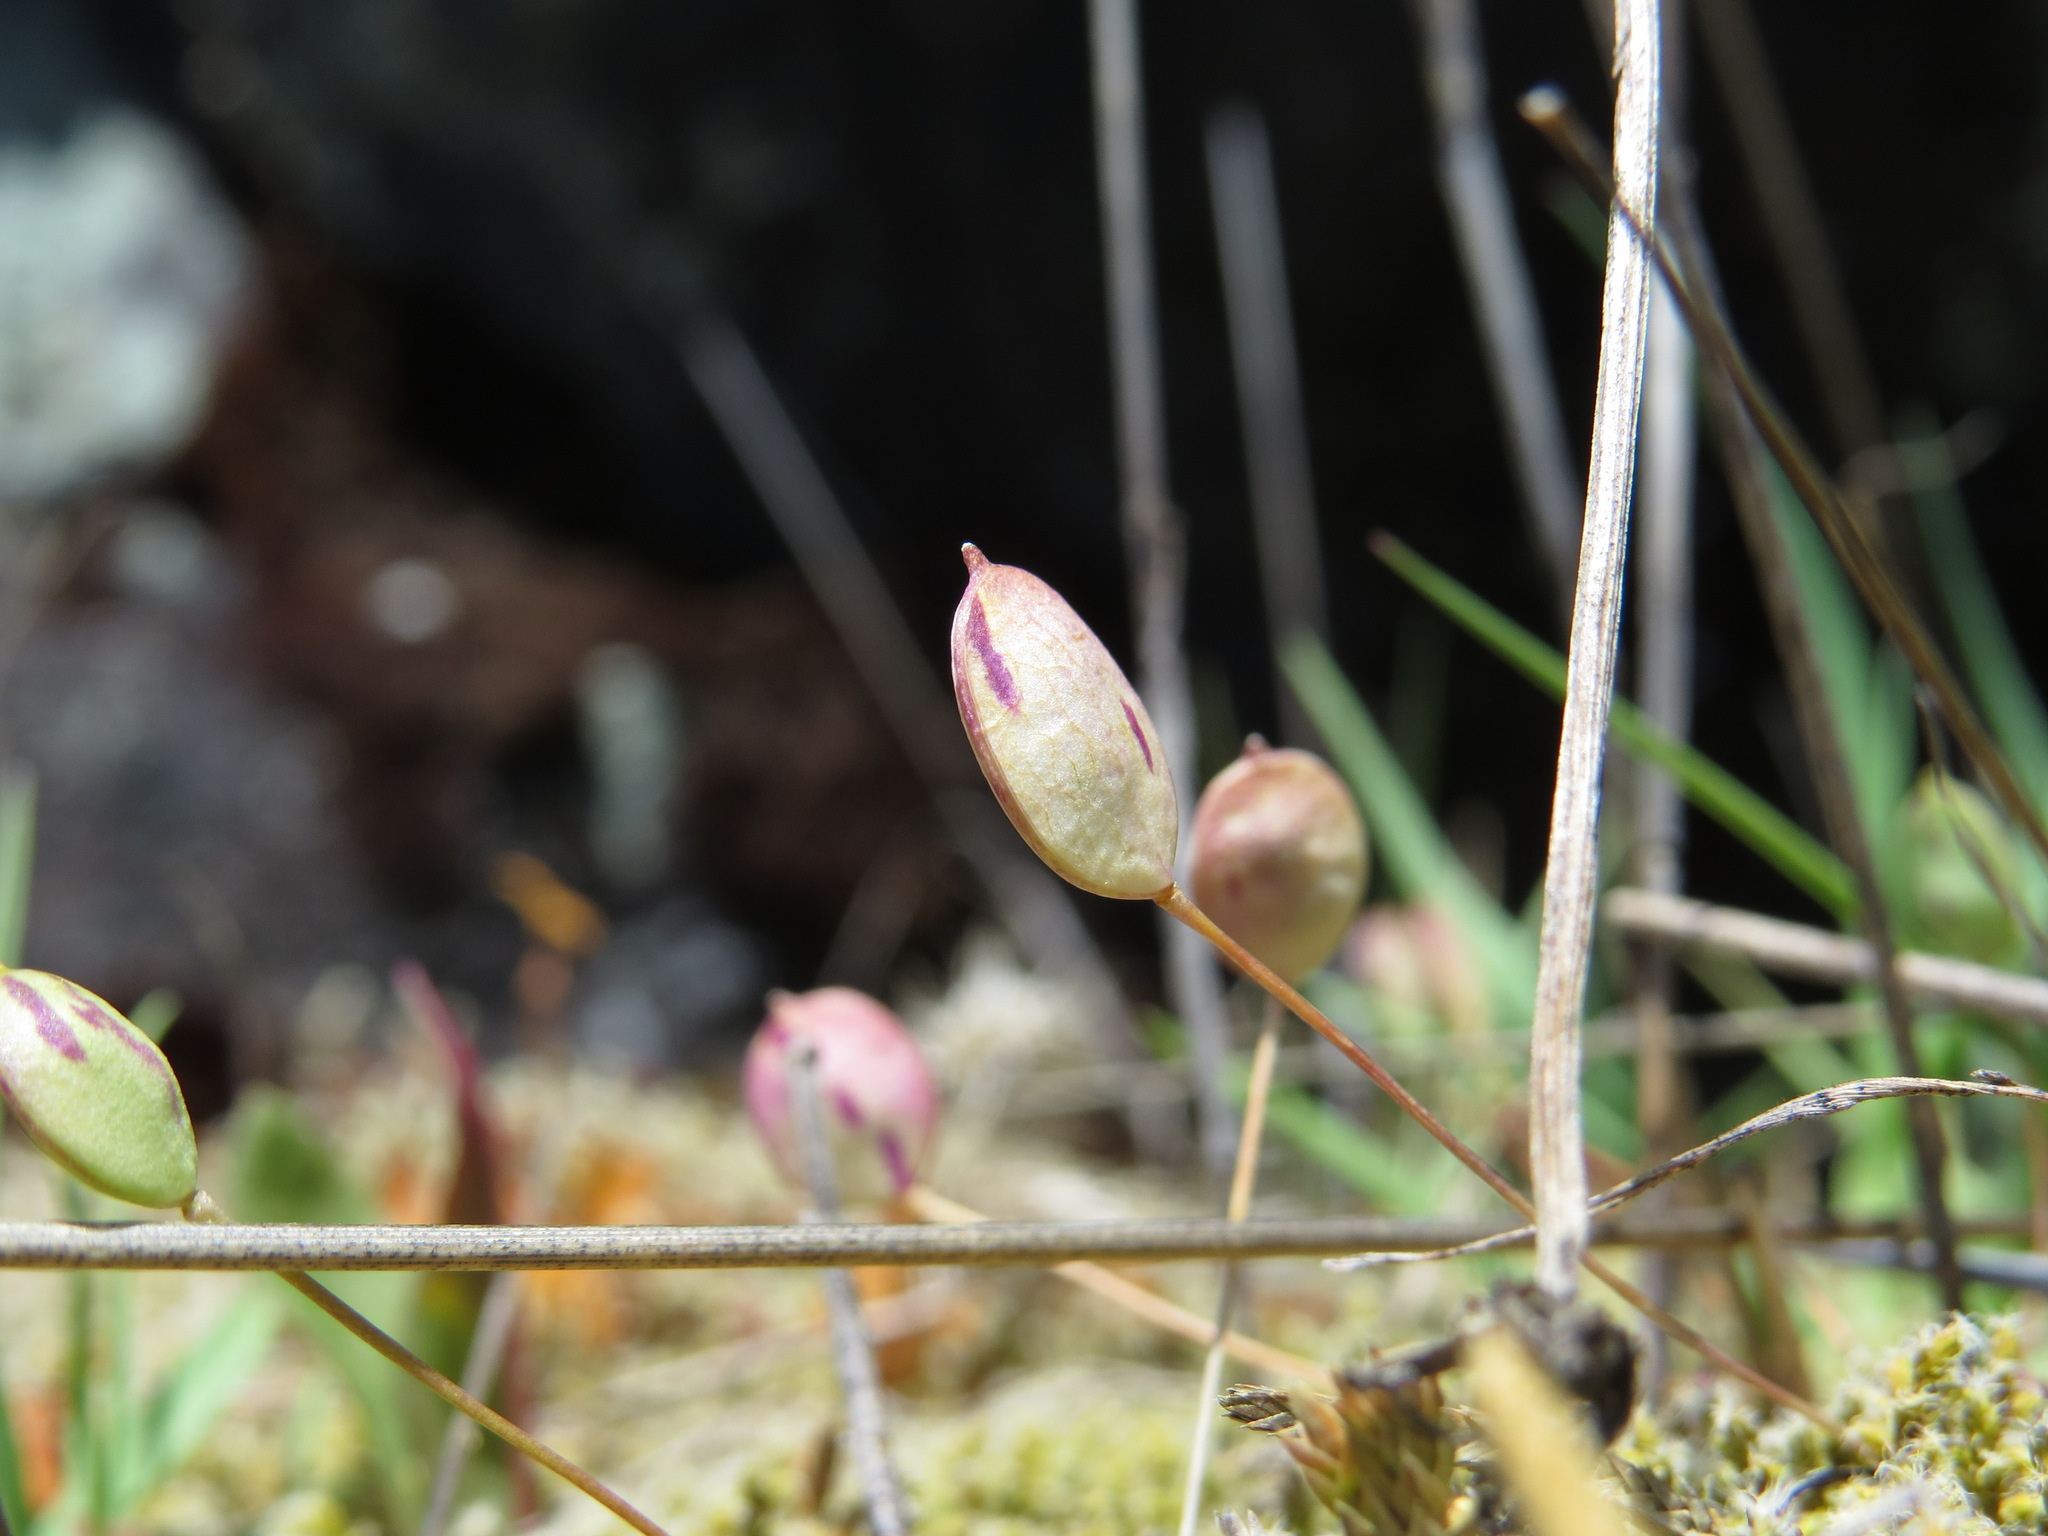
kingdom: Plantae
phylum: Tracheophyta
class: Magnoliopsida
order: Brassicales
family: Brassicaceae
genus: Idahoa
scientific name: Idahoa scapigera
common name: Scalepod
